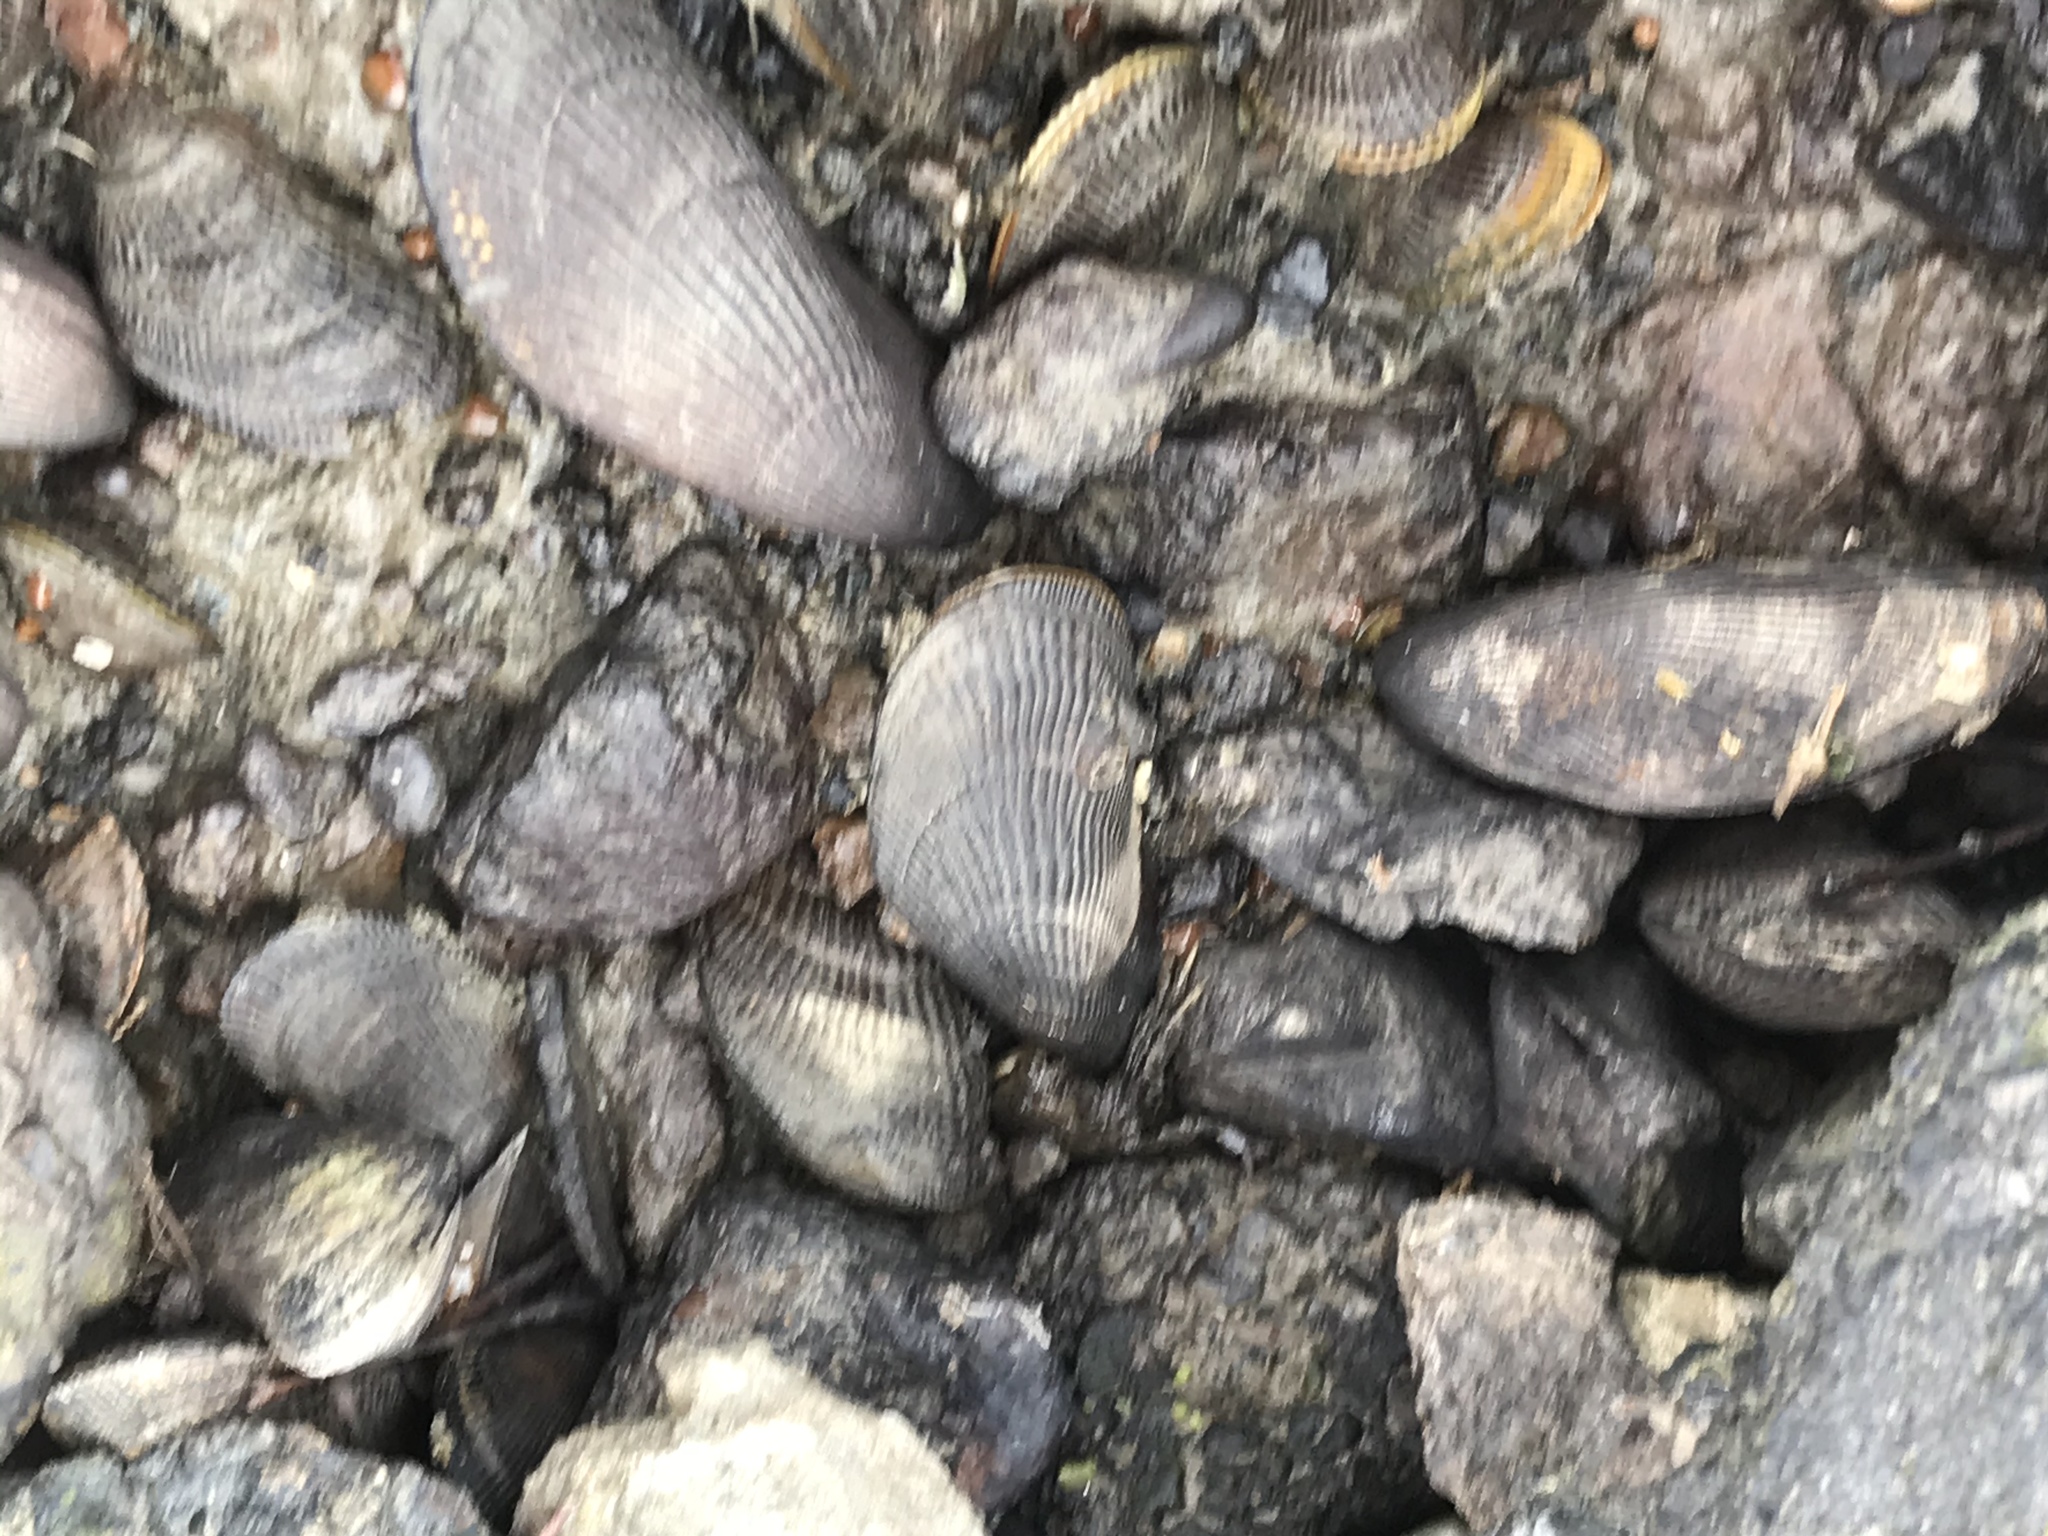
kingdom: Animalia
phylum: Mollusca
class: Bivalvia
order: Mytilida
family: Mytilidae
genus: Geukensia
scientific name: Geukensia demissa
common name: Ribbed mussel
